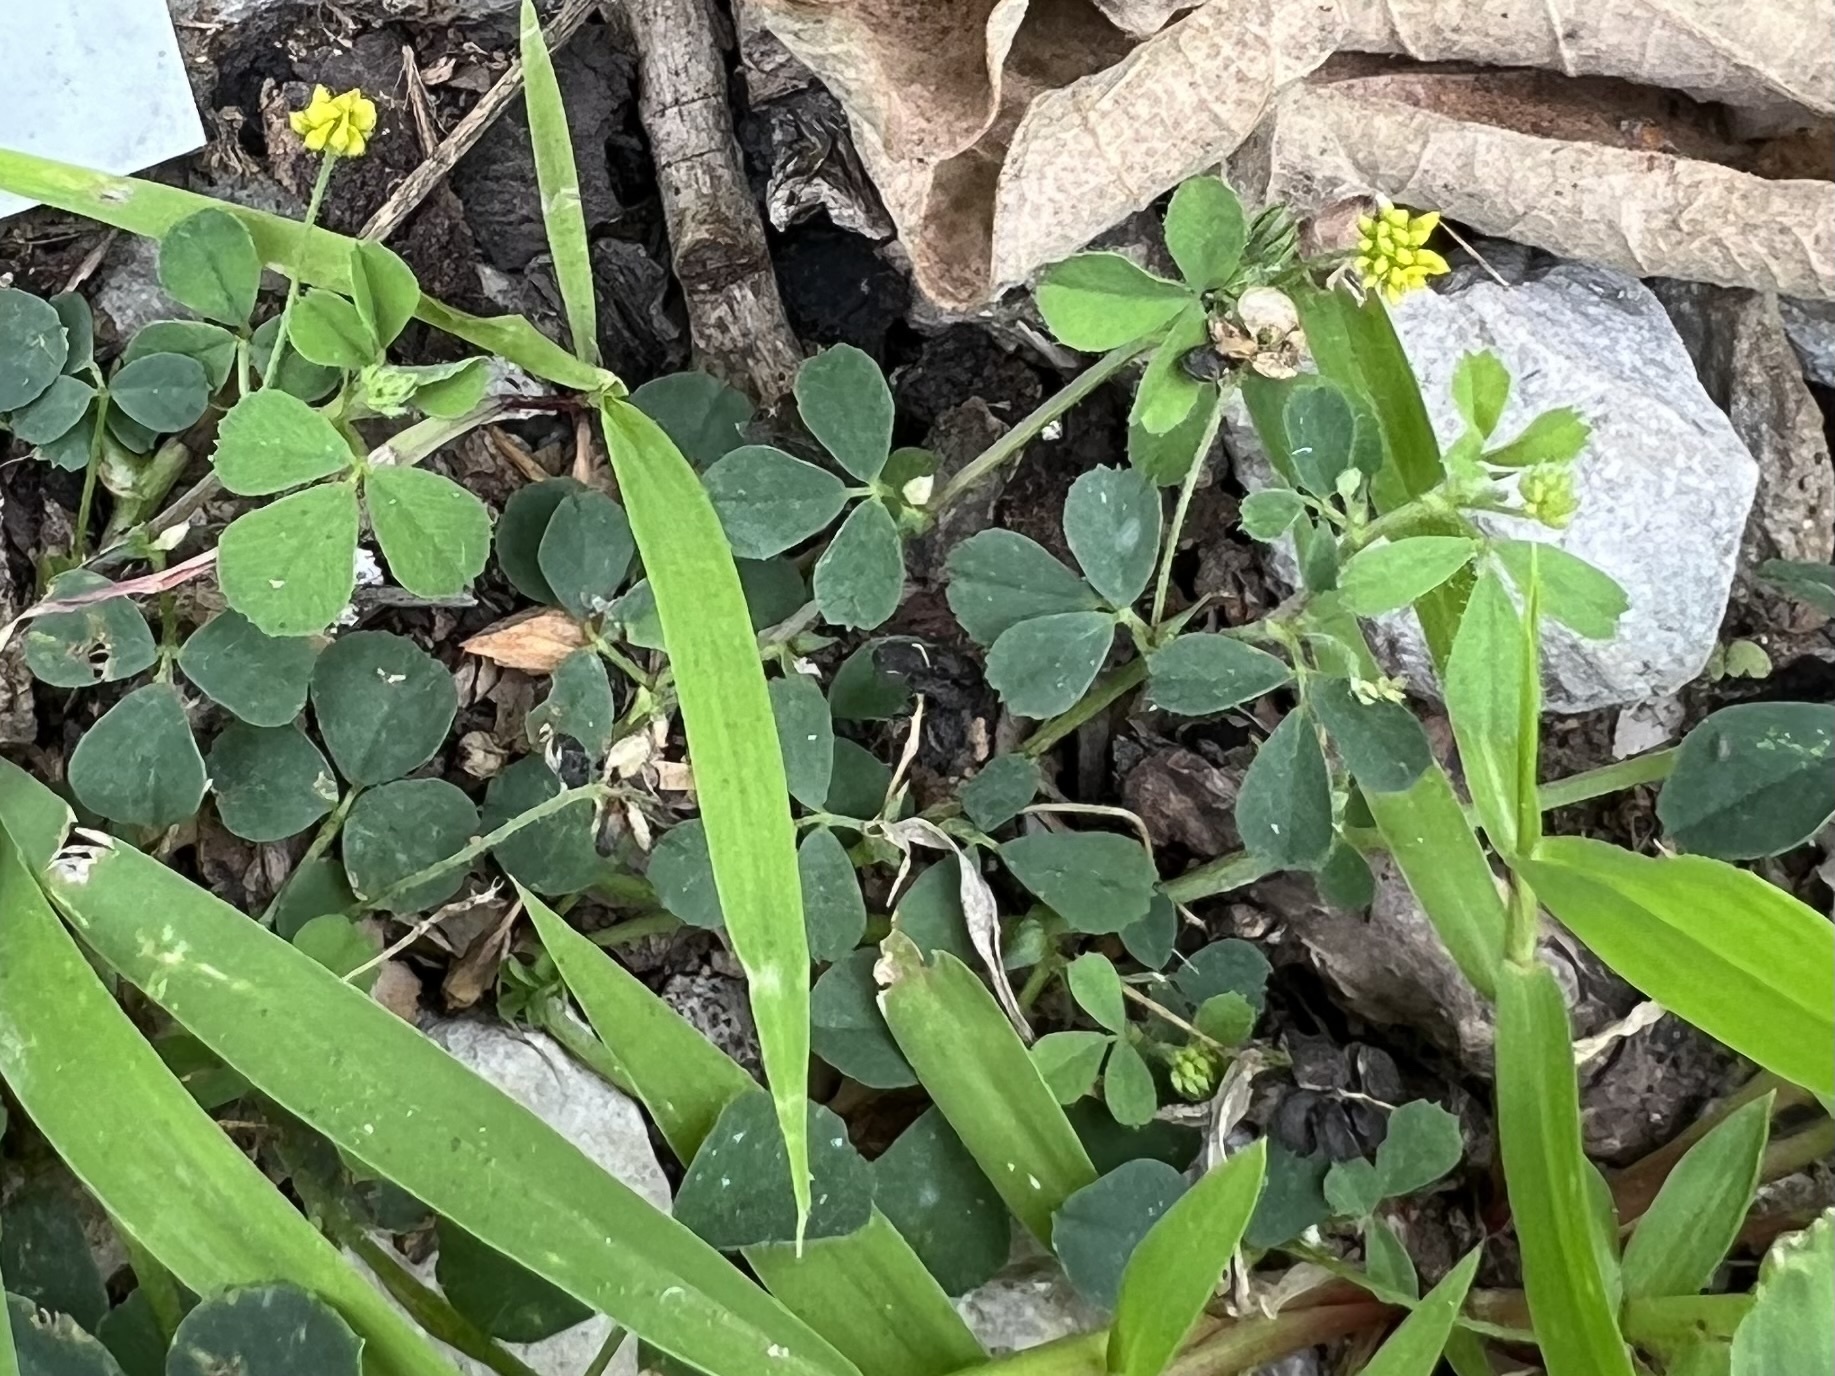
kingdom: Plantae
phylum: Tracheophyta
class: Magnoliopsida
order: Fabales
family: Fabaceae
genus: Medicago
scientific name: Medicago lupulina
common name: Black medick
